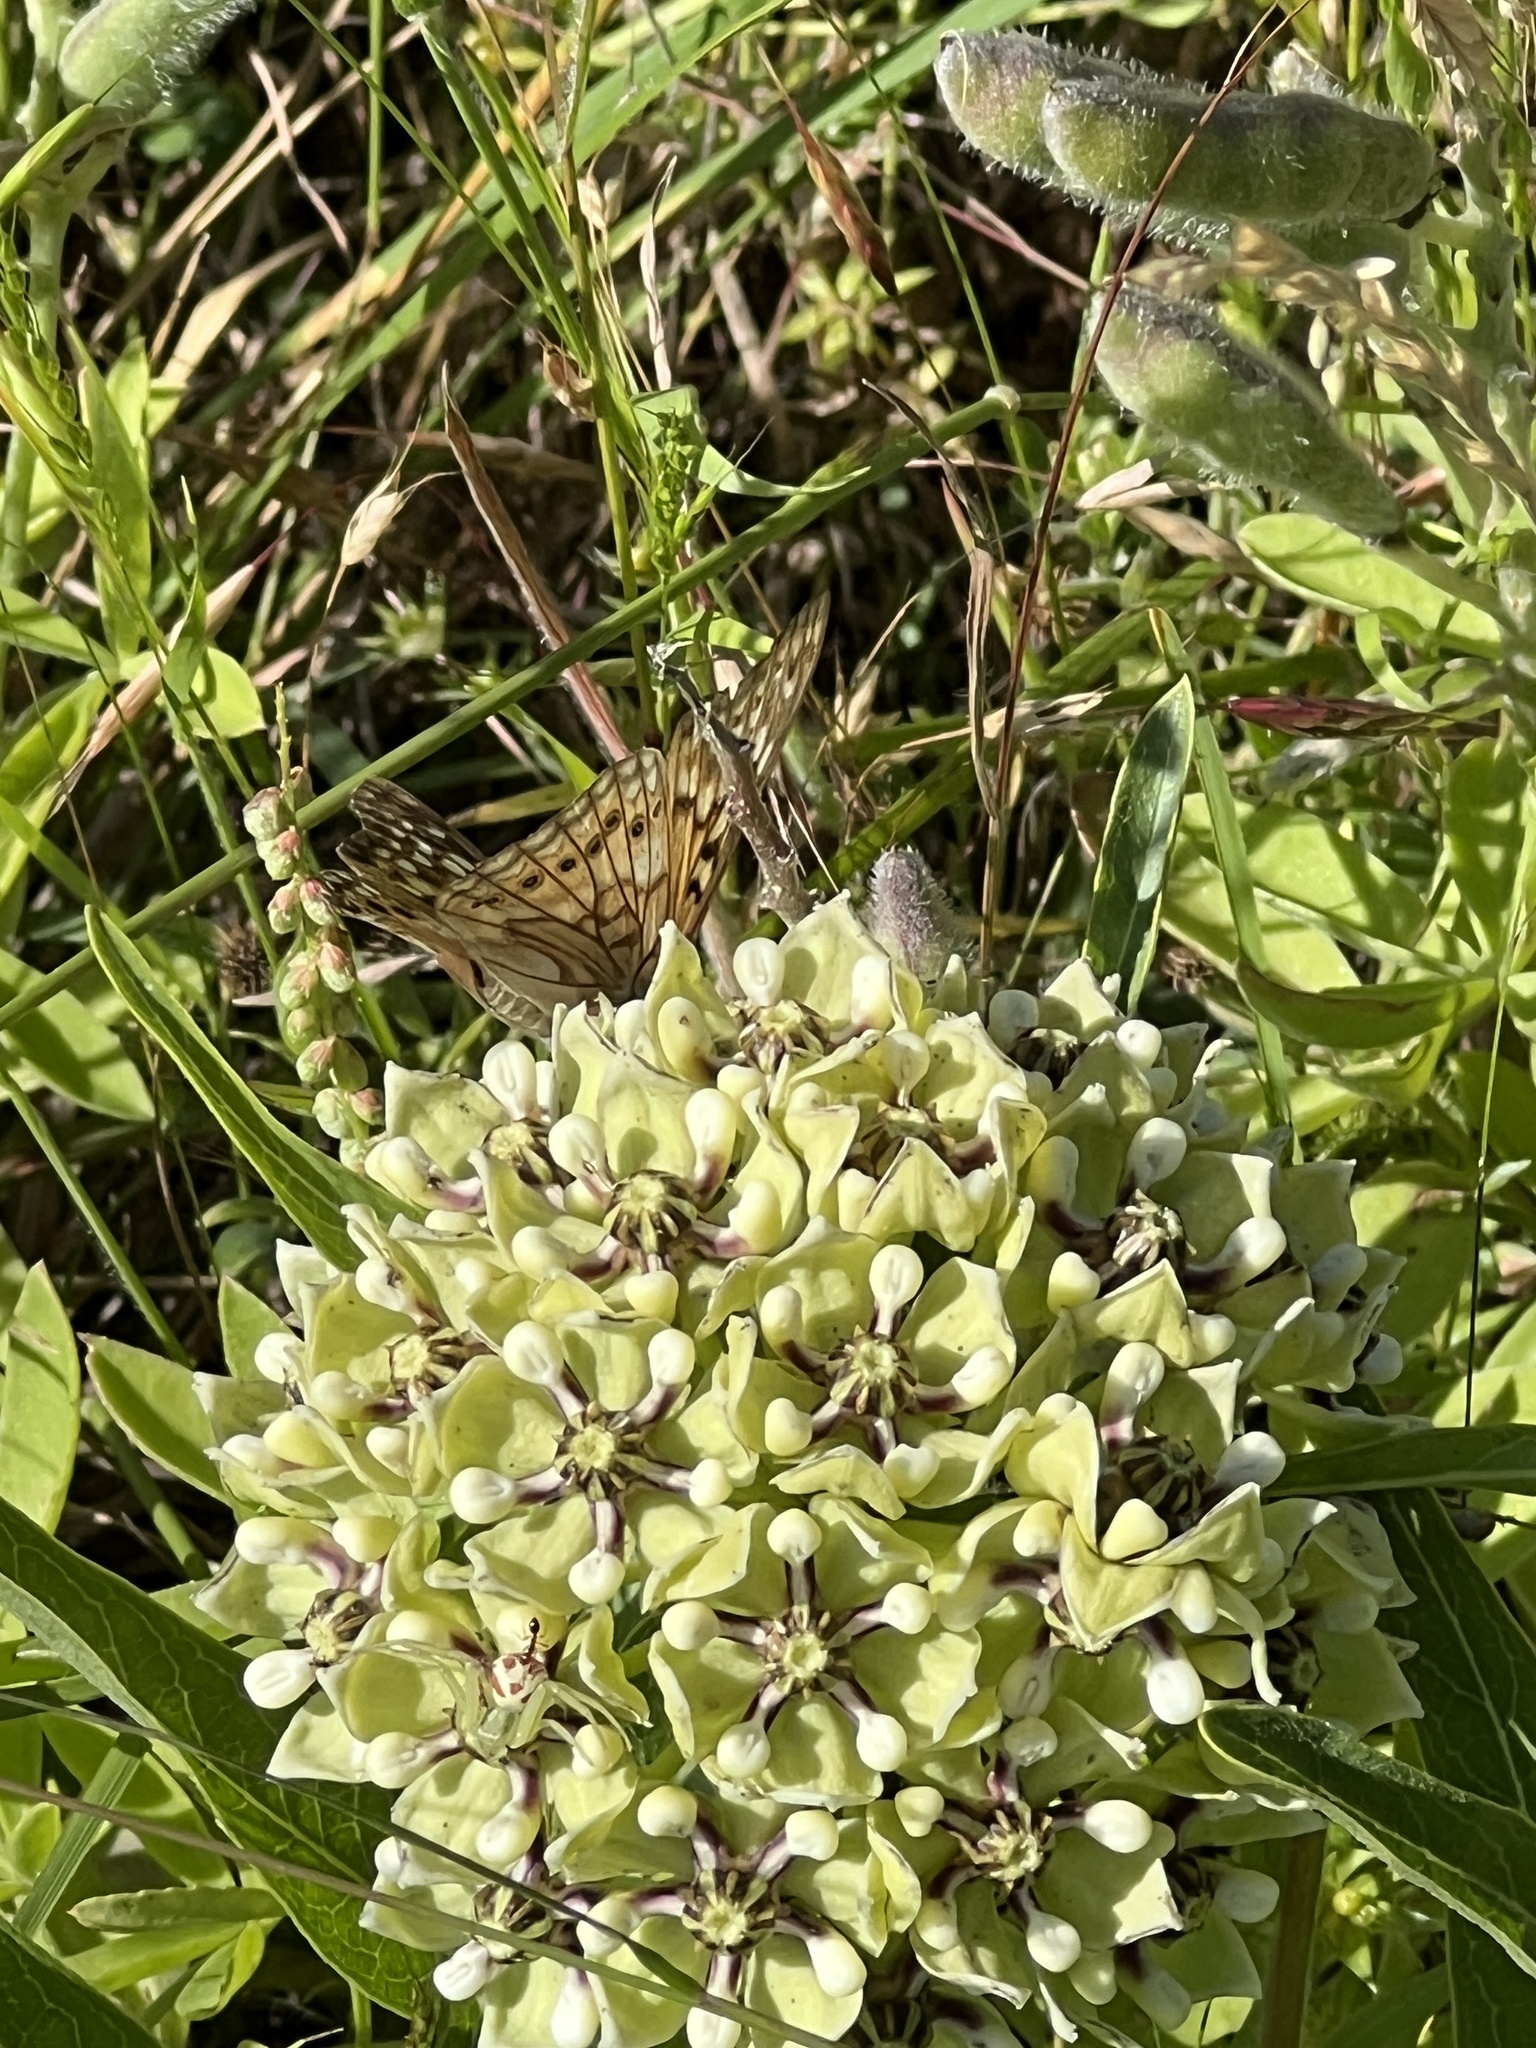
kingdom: Plantae
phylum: Tracheophyta
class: Magnoliopsida
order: Gentianales
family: Apocynaceae
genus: Asclepias
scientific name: Asclepias asperula
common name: Antelope horns
